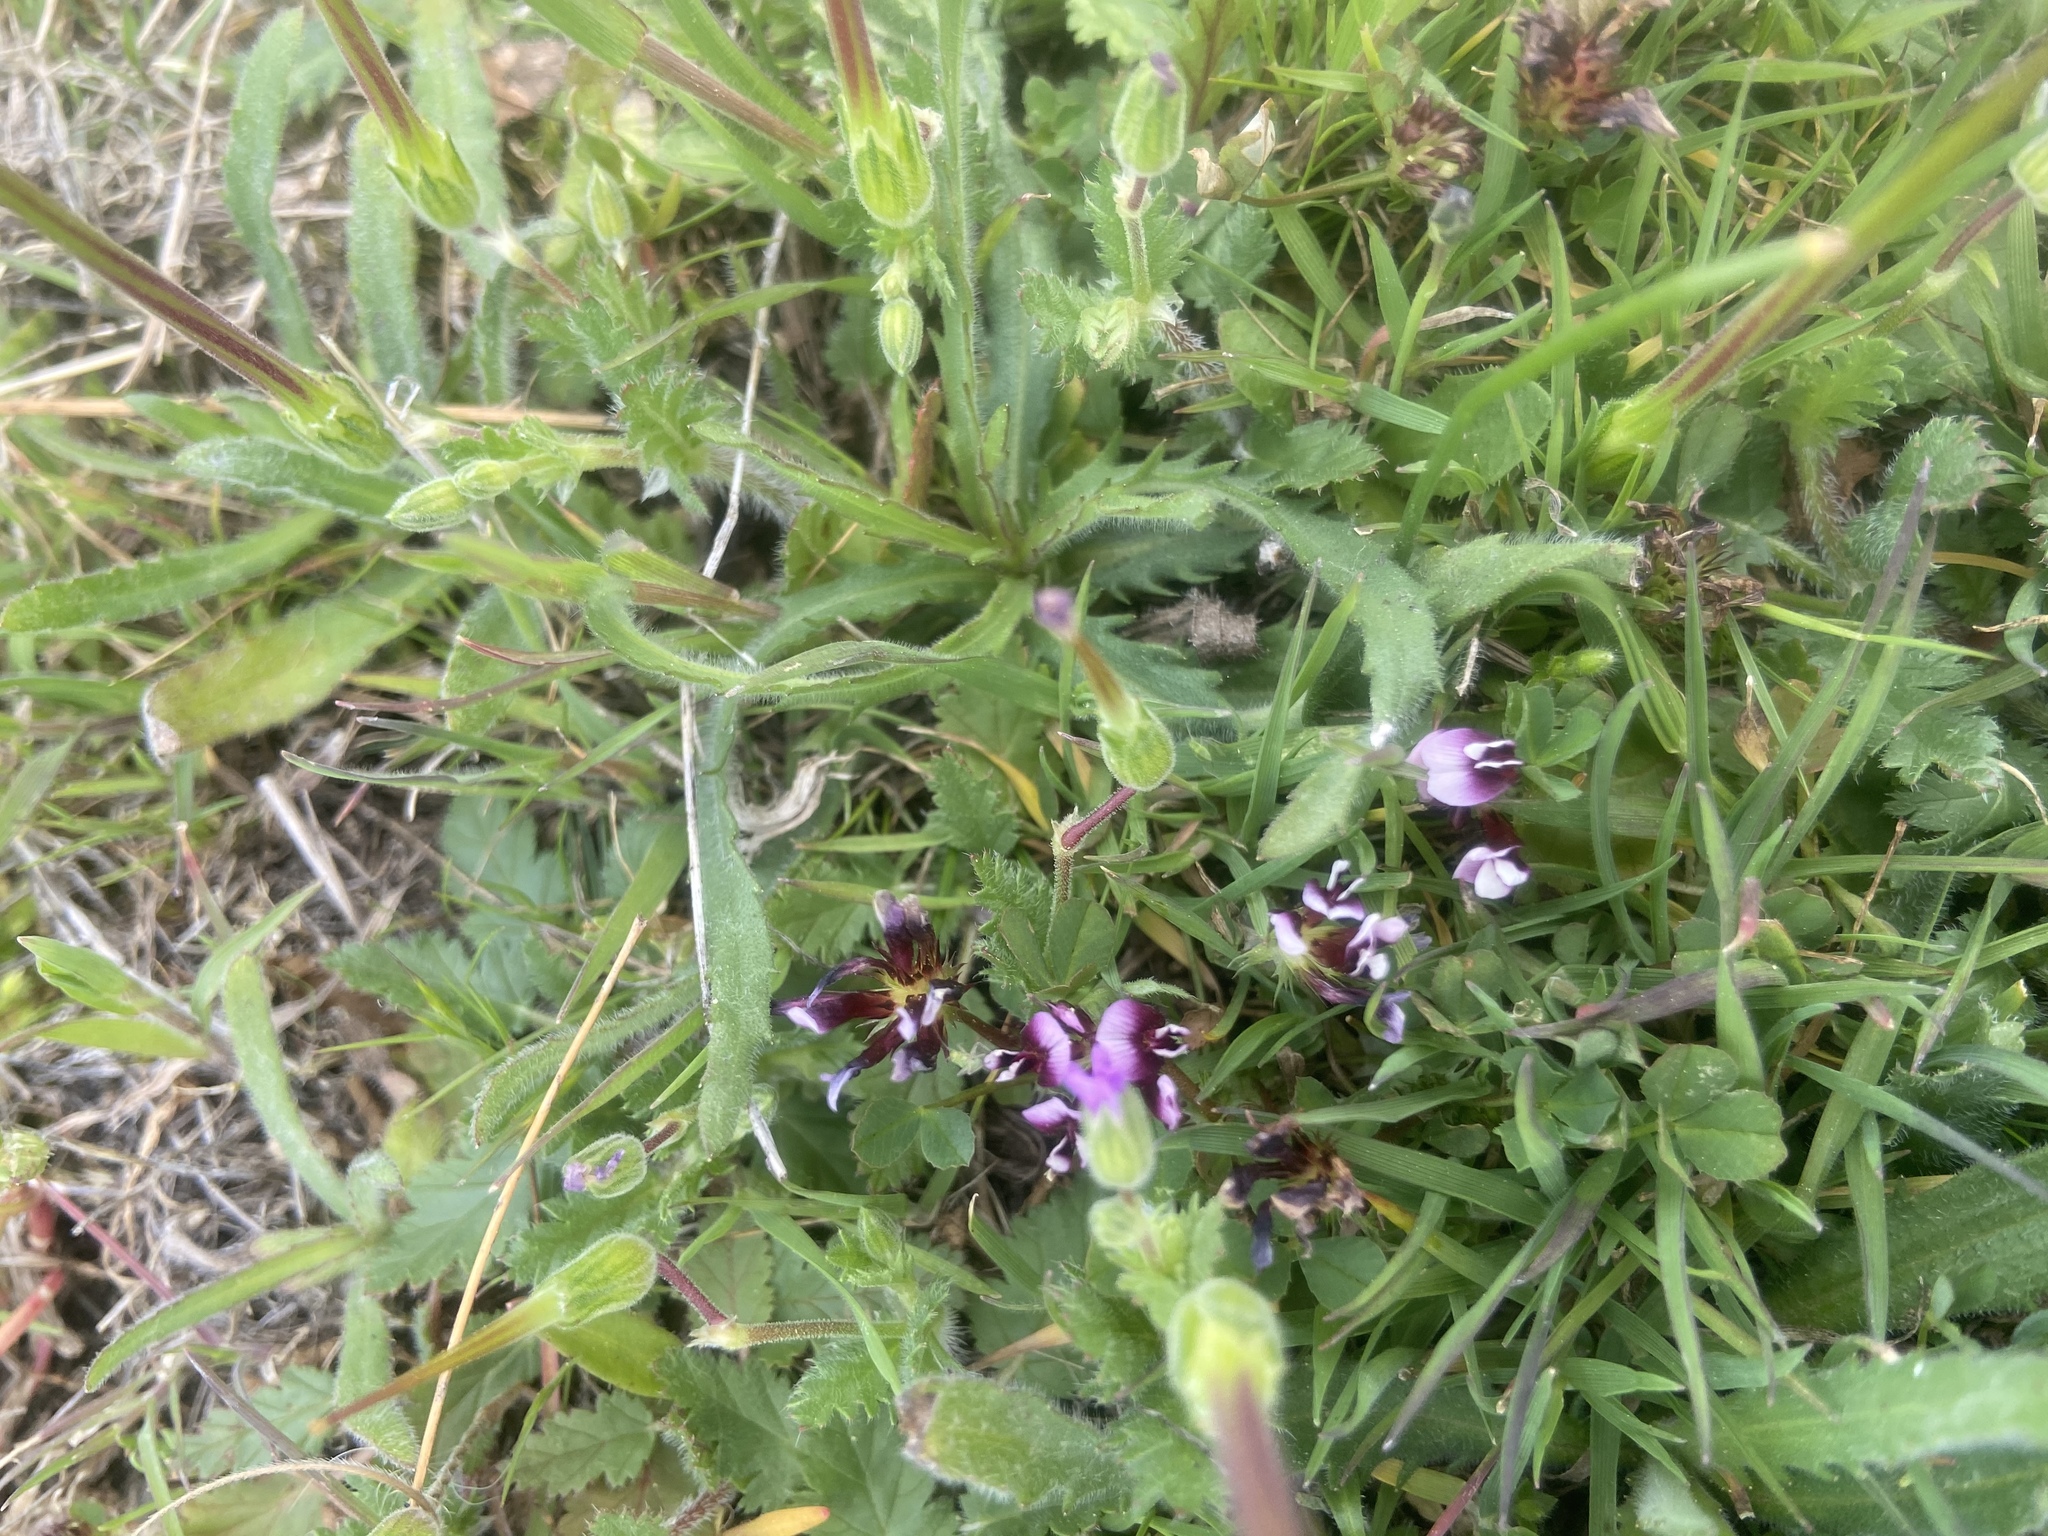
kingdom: Plantae
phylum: Tracheophyta
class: Magnoliopsida
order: Fabales
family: Fabaceae
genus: Trifolium
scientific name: Trifolium variegatum
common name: Whitetip clover
